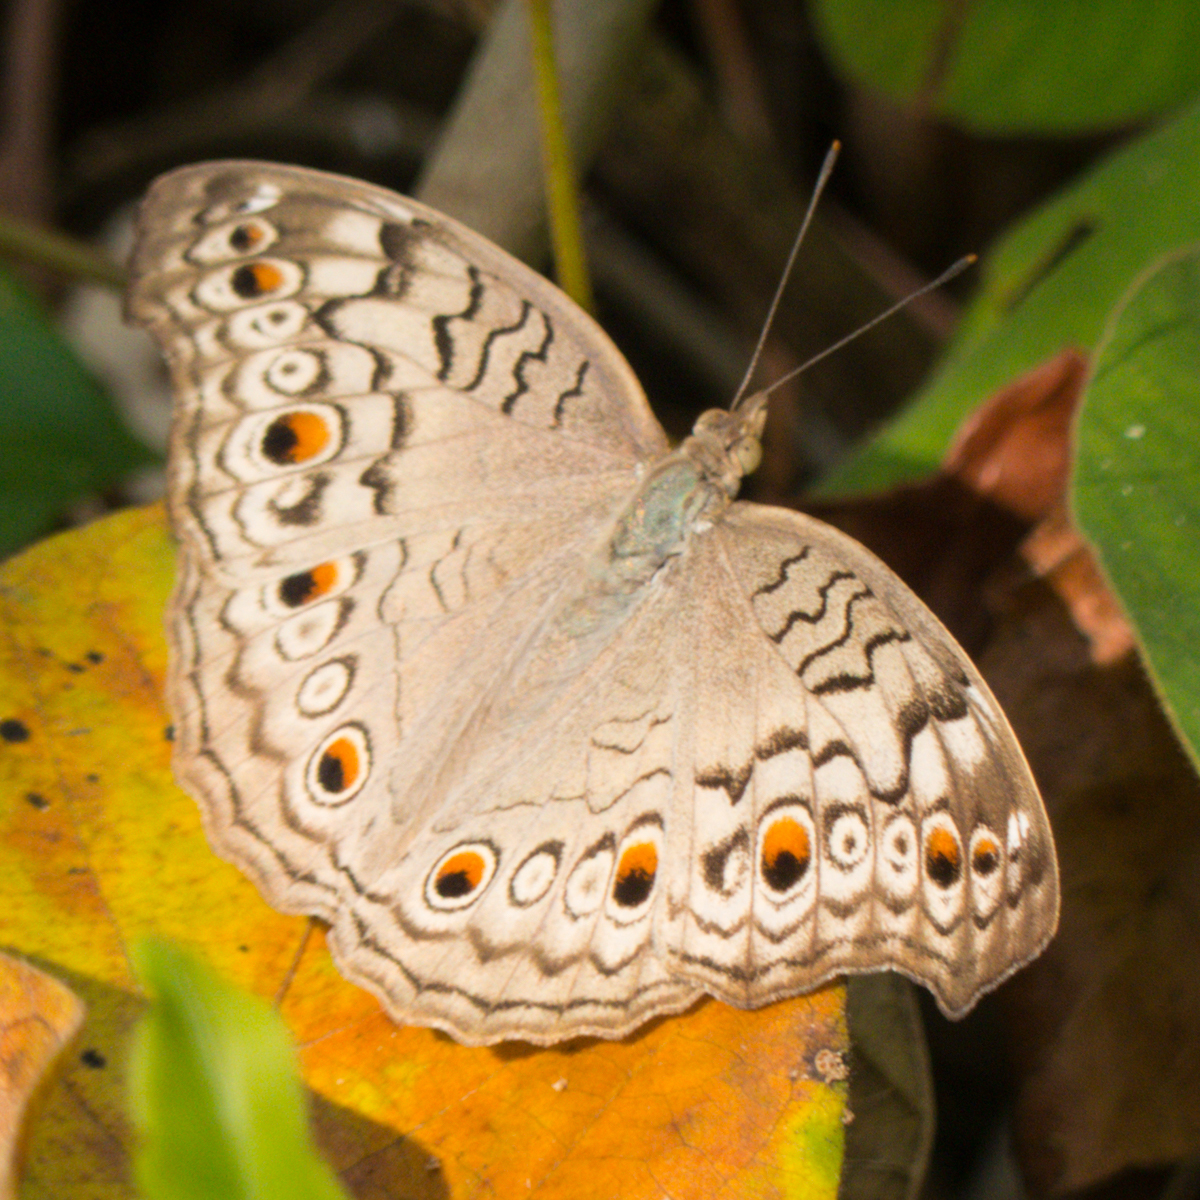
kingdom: Animalia
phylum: Arthropoda
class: Insecta
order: Lepidoptera
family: Nymphalidae
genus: Junonia
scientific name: Junonia atlites
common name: Grey pansy
